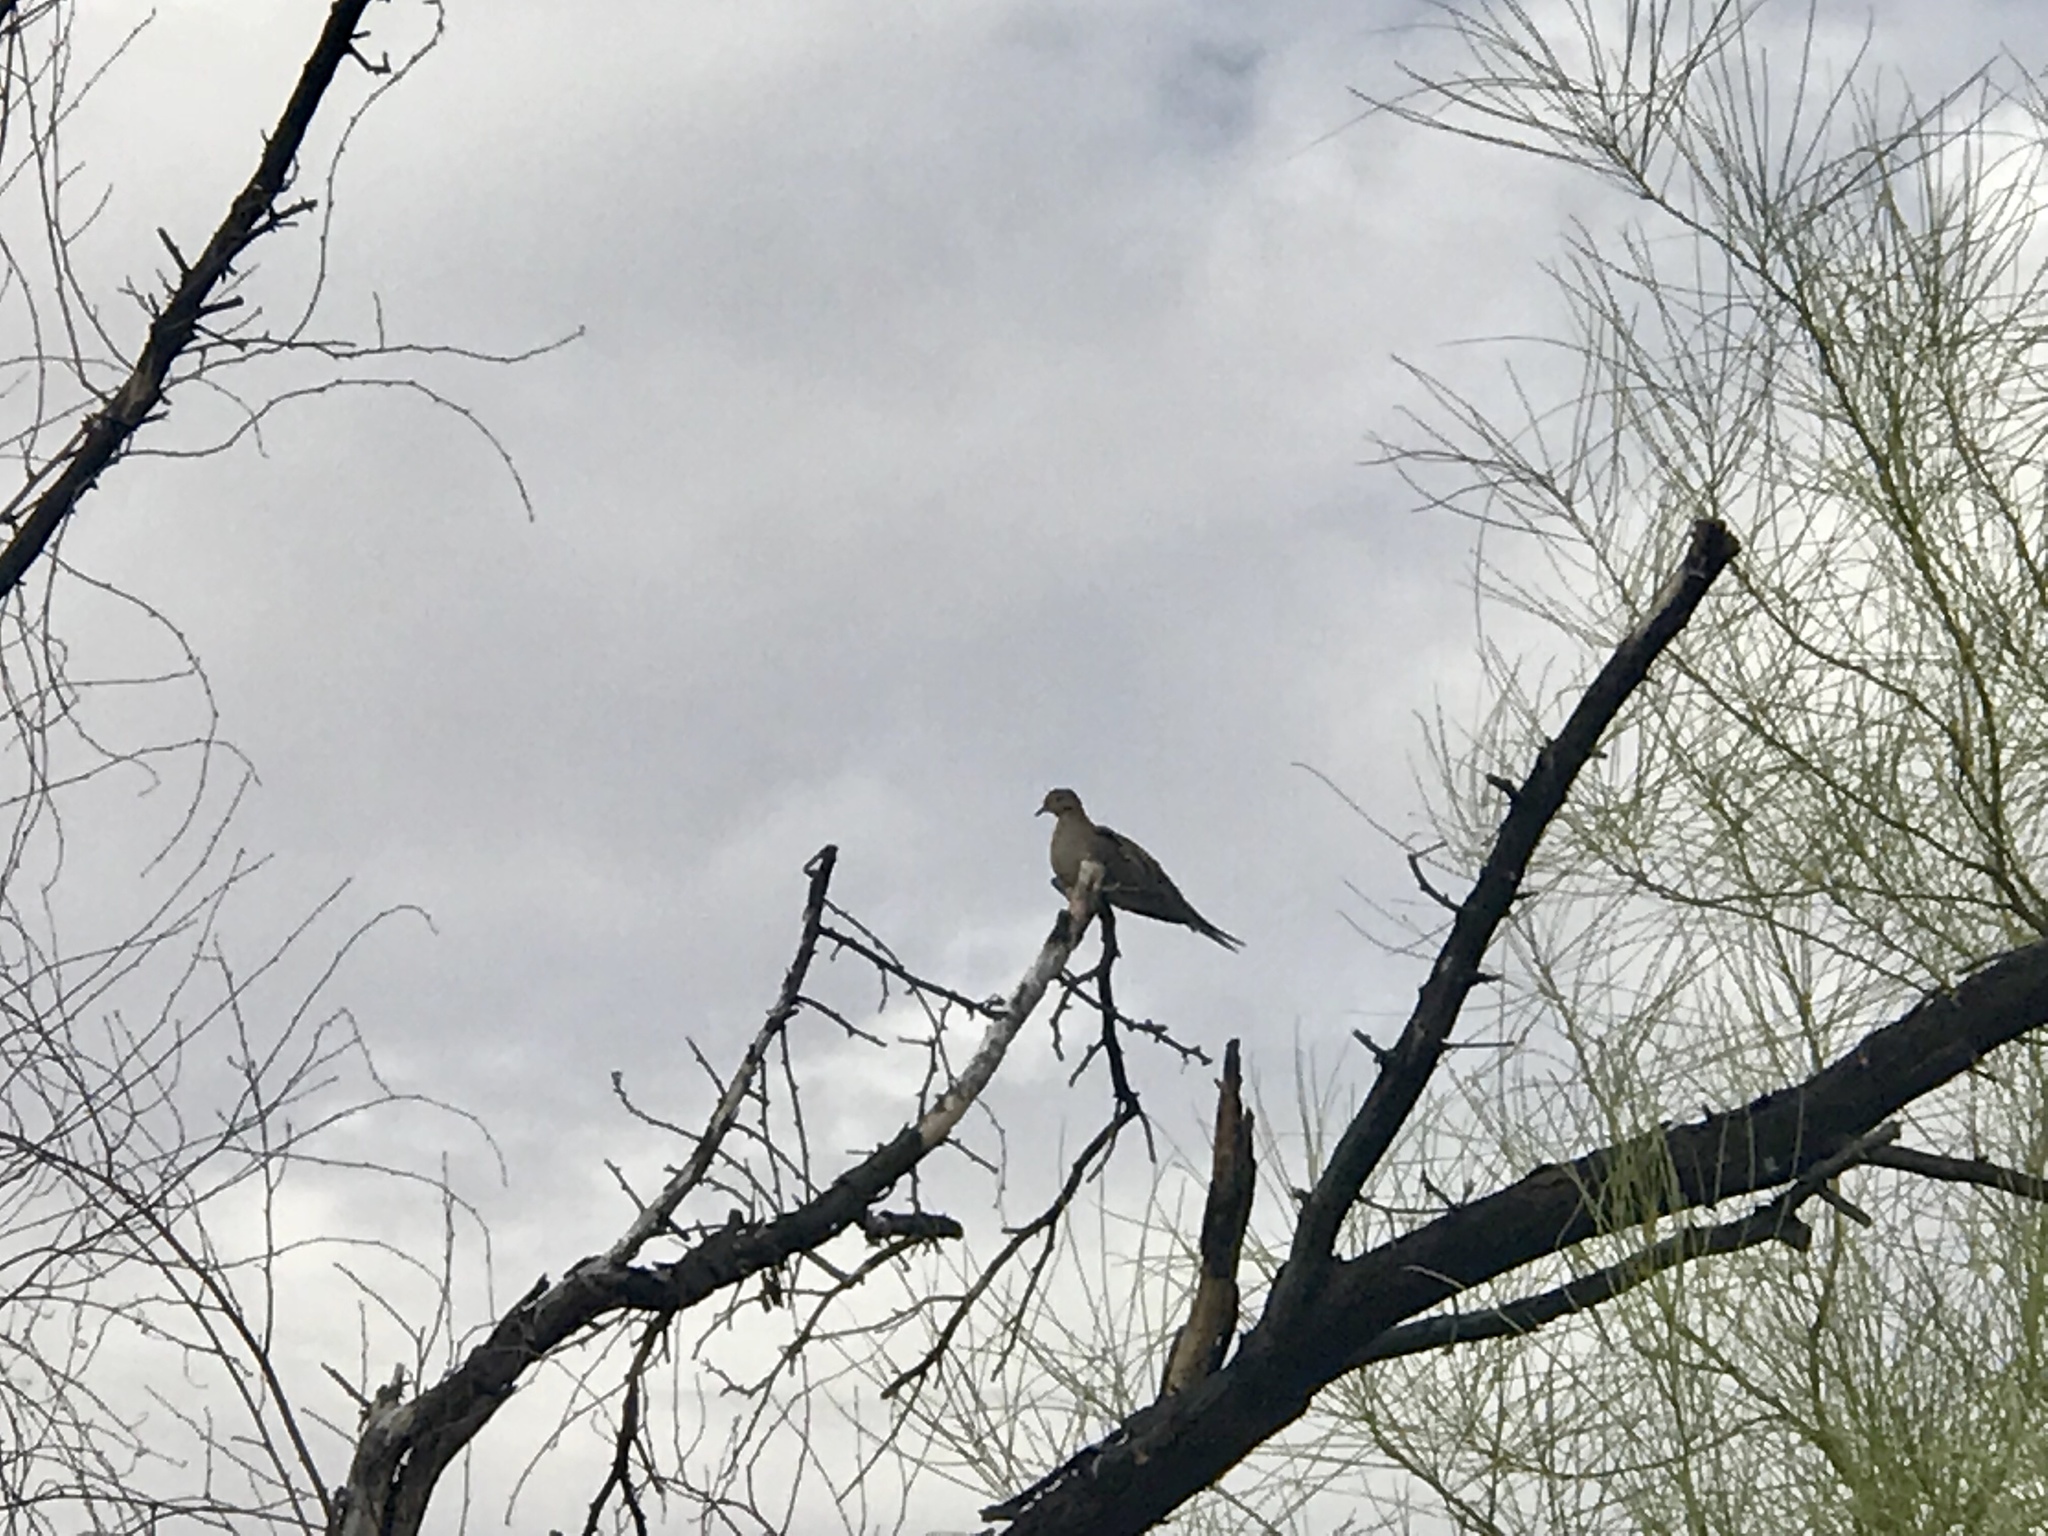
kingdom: Animalia
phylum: Chordata
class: Aves
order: Columbiformes
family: Columbidae
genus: Zenaida
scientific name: Zenaida macroura
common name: Mourning dove
